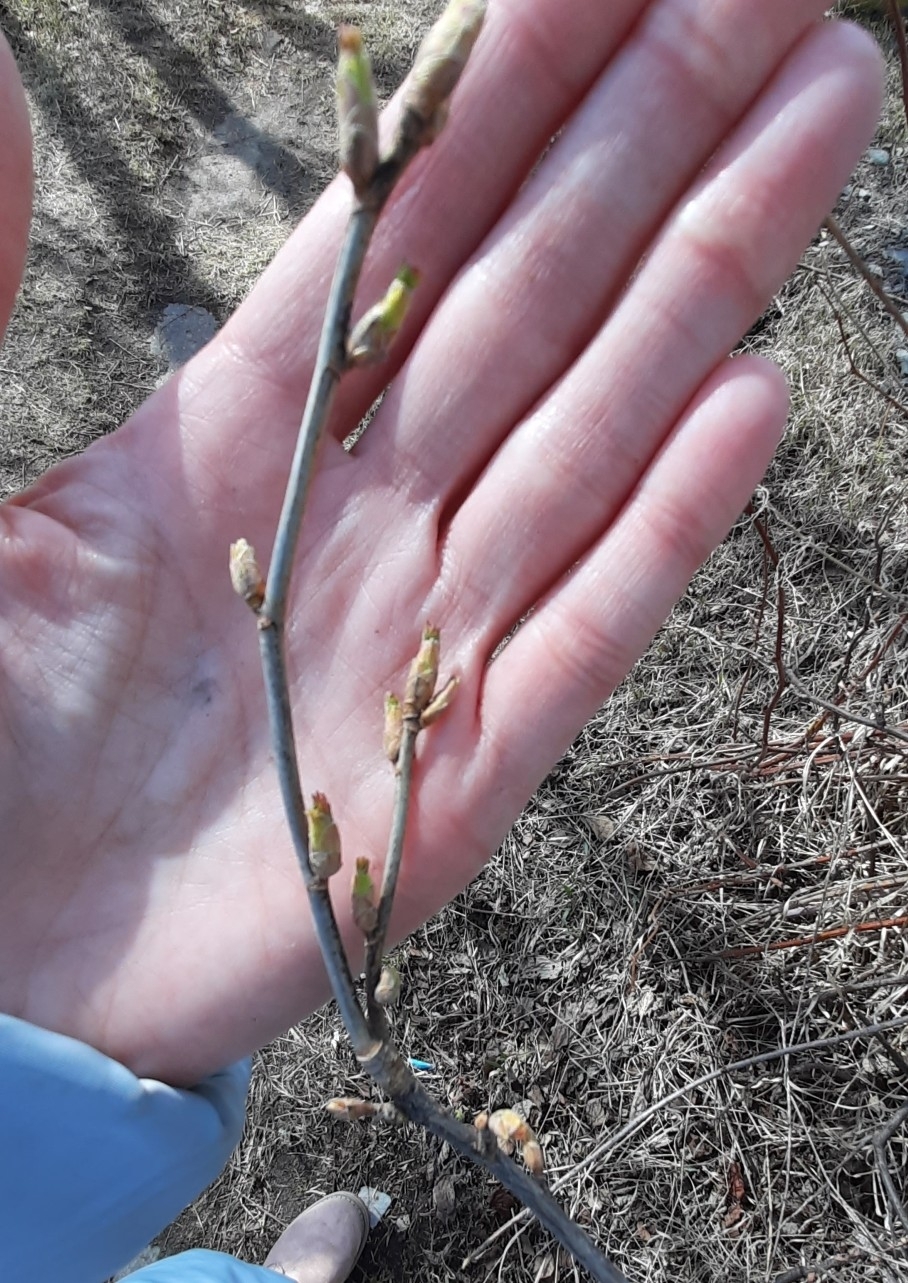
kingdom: Plantae
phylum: Tracheophyta
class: Magnoliopsida
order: Saxifragales
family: Grossulariaceae
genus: Ribes
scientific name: Ribes nigrum
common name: Black currant
